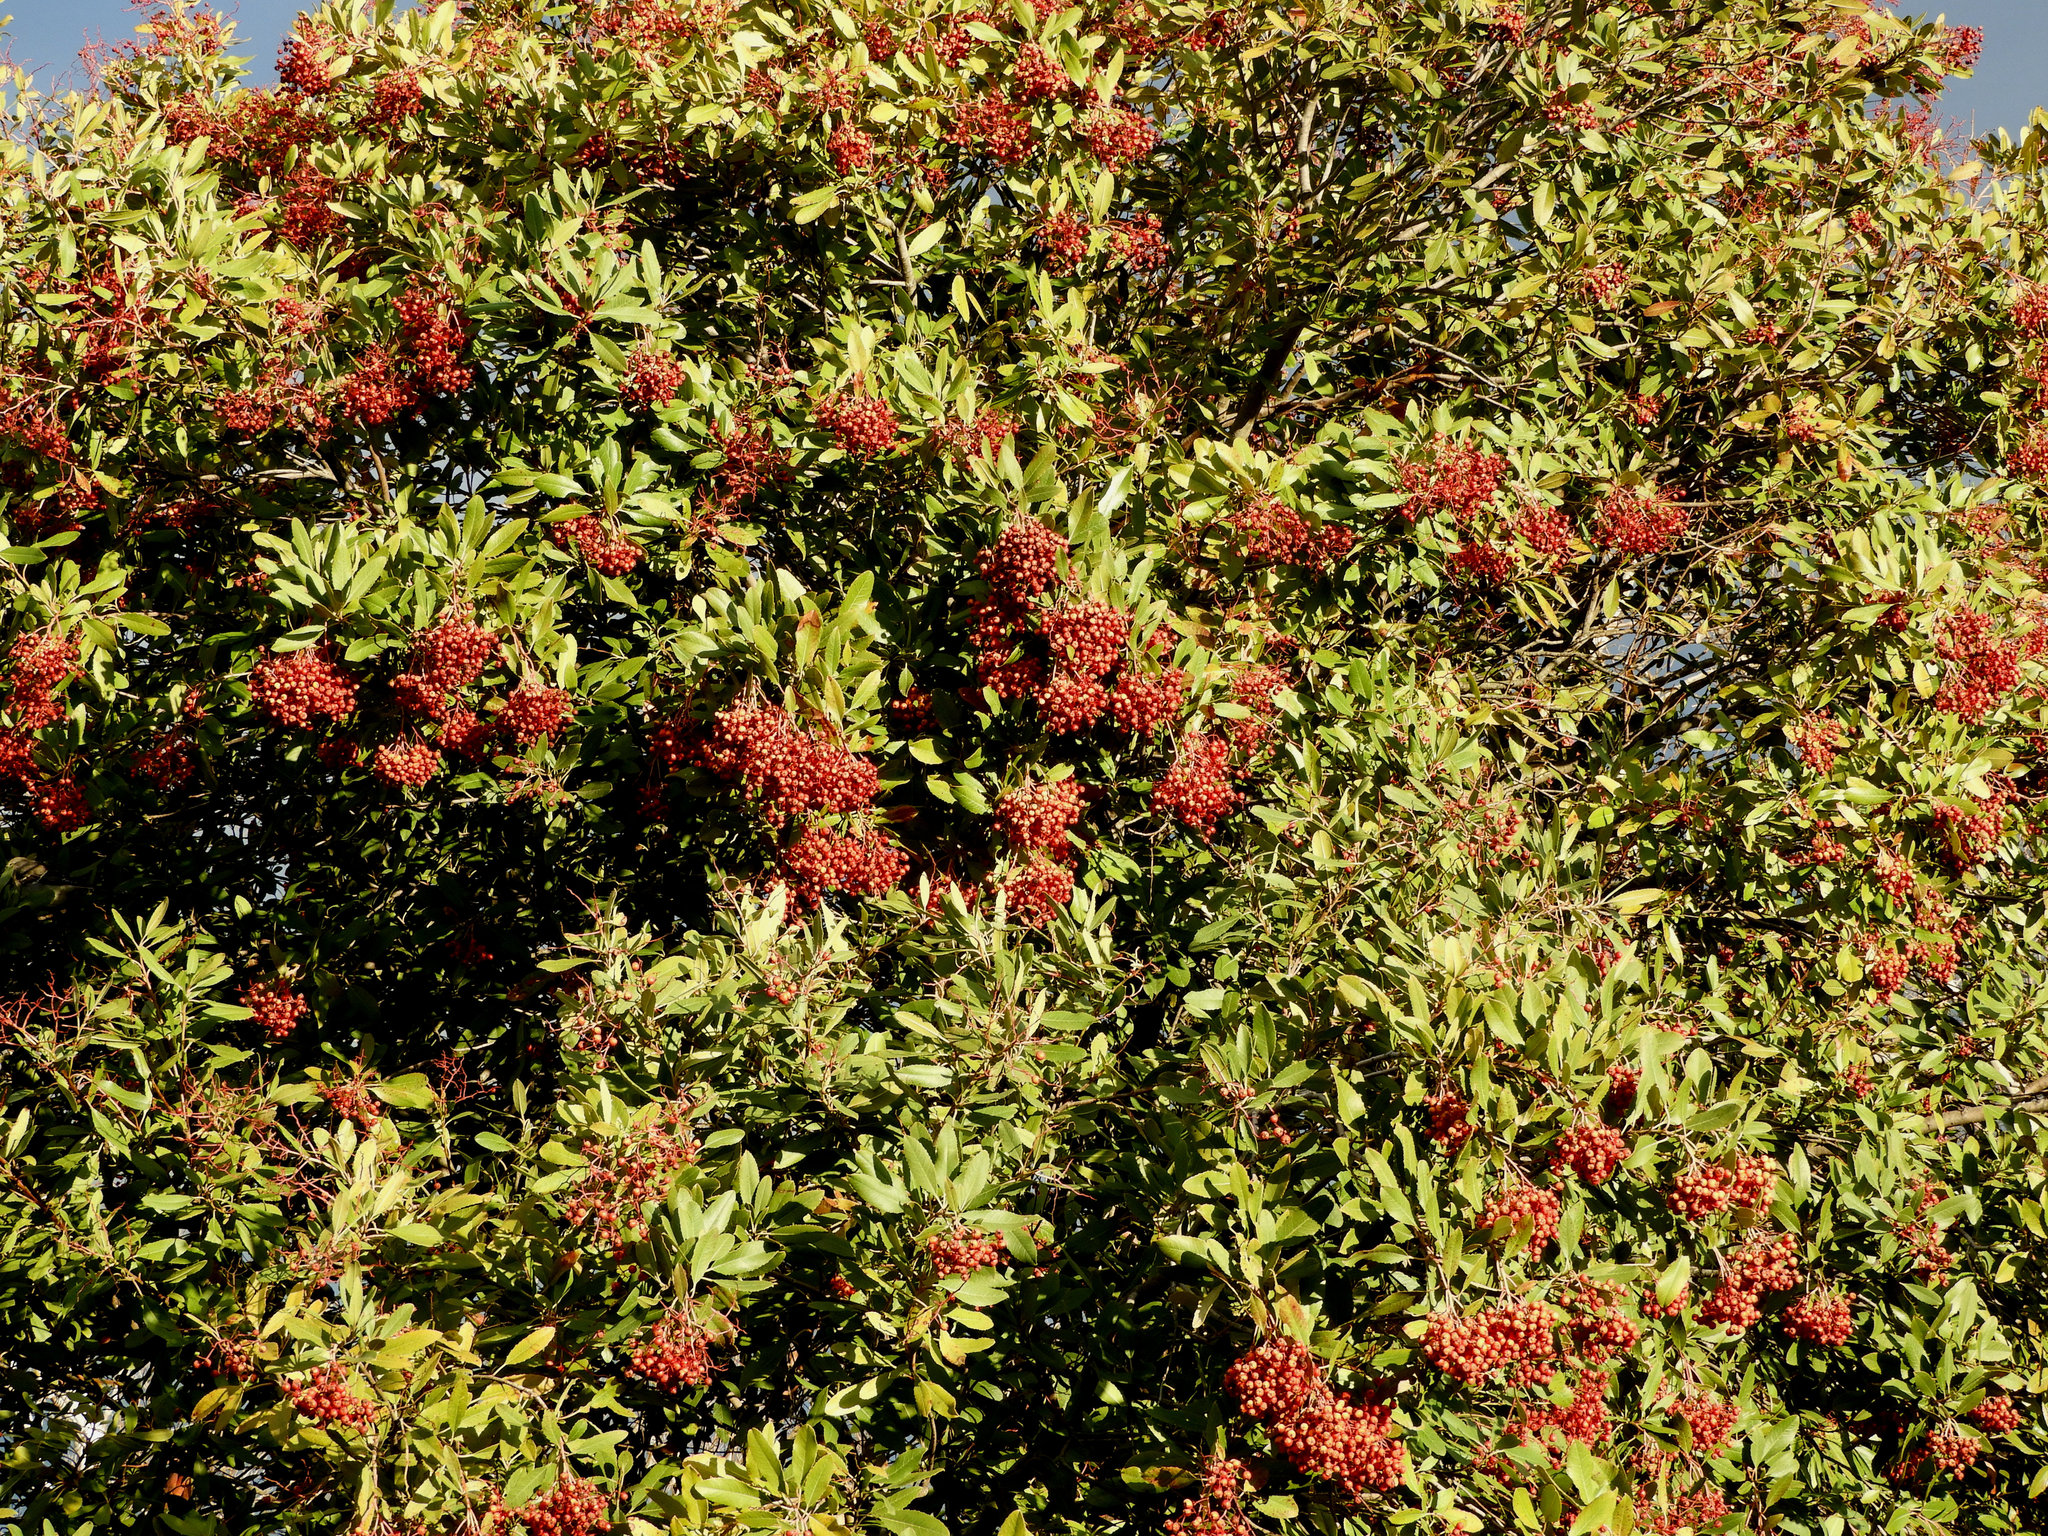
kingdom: Plantae
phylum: Tracheophyta
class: Magnoliopsida
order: Rosales
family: Rosaceae
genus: Heteromeles
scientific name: Heteromeles arbutifolia
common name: California-holly
